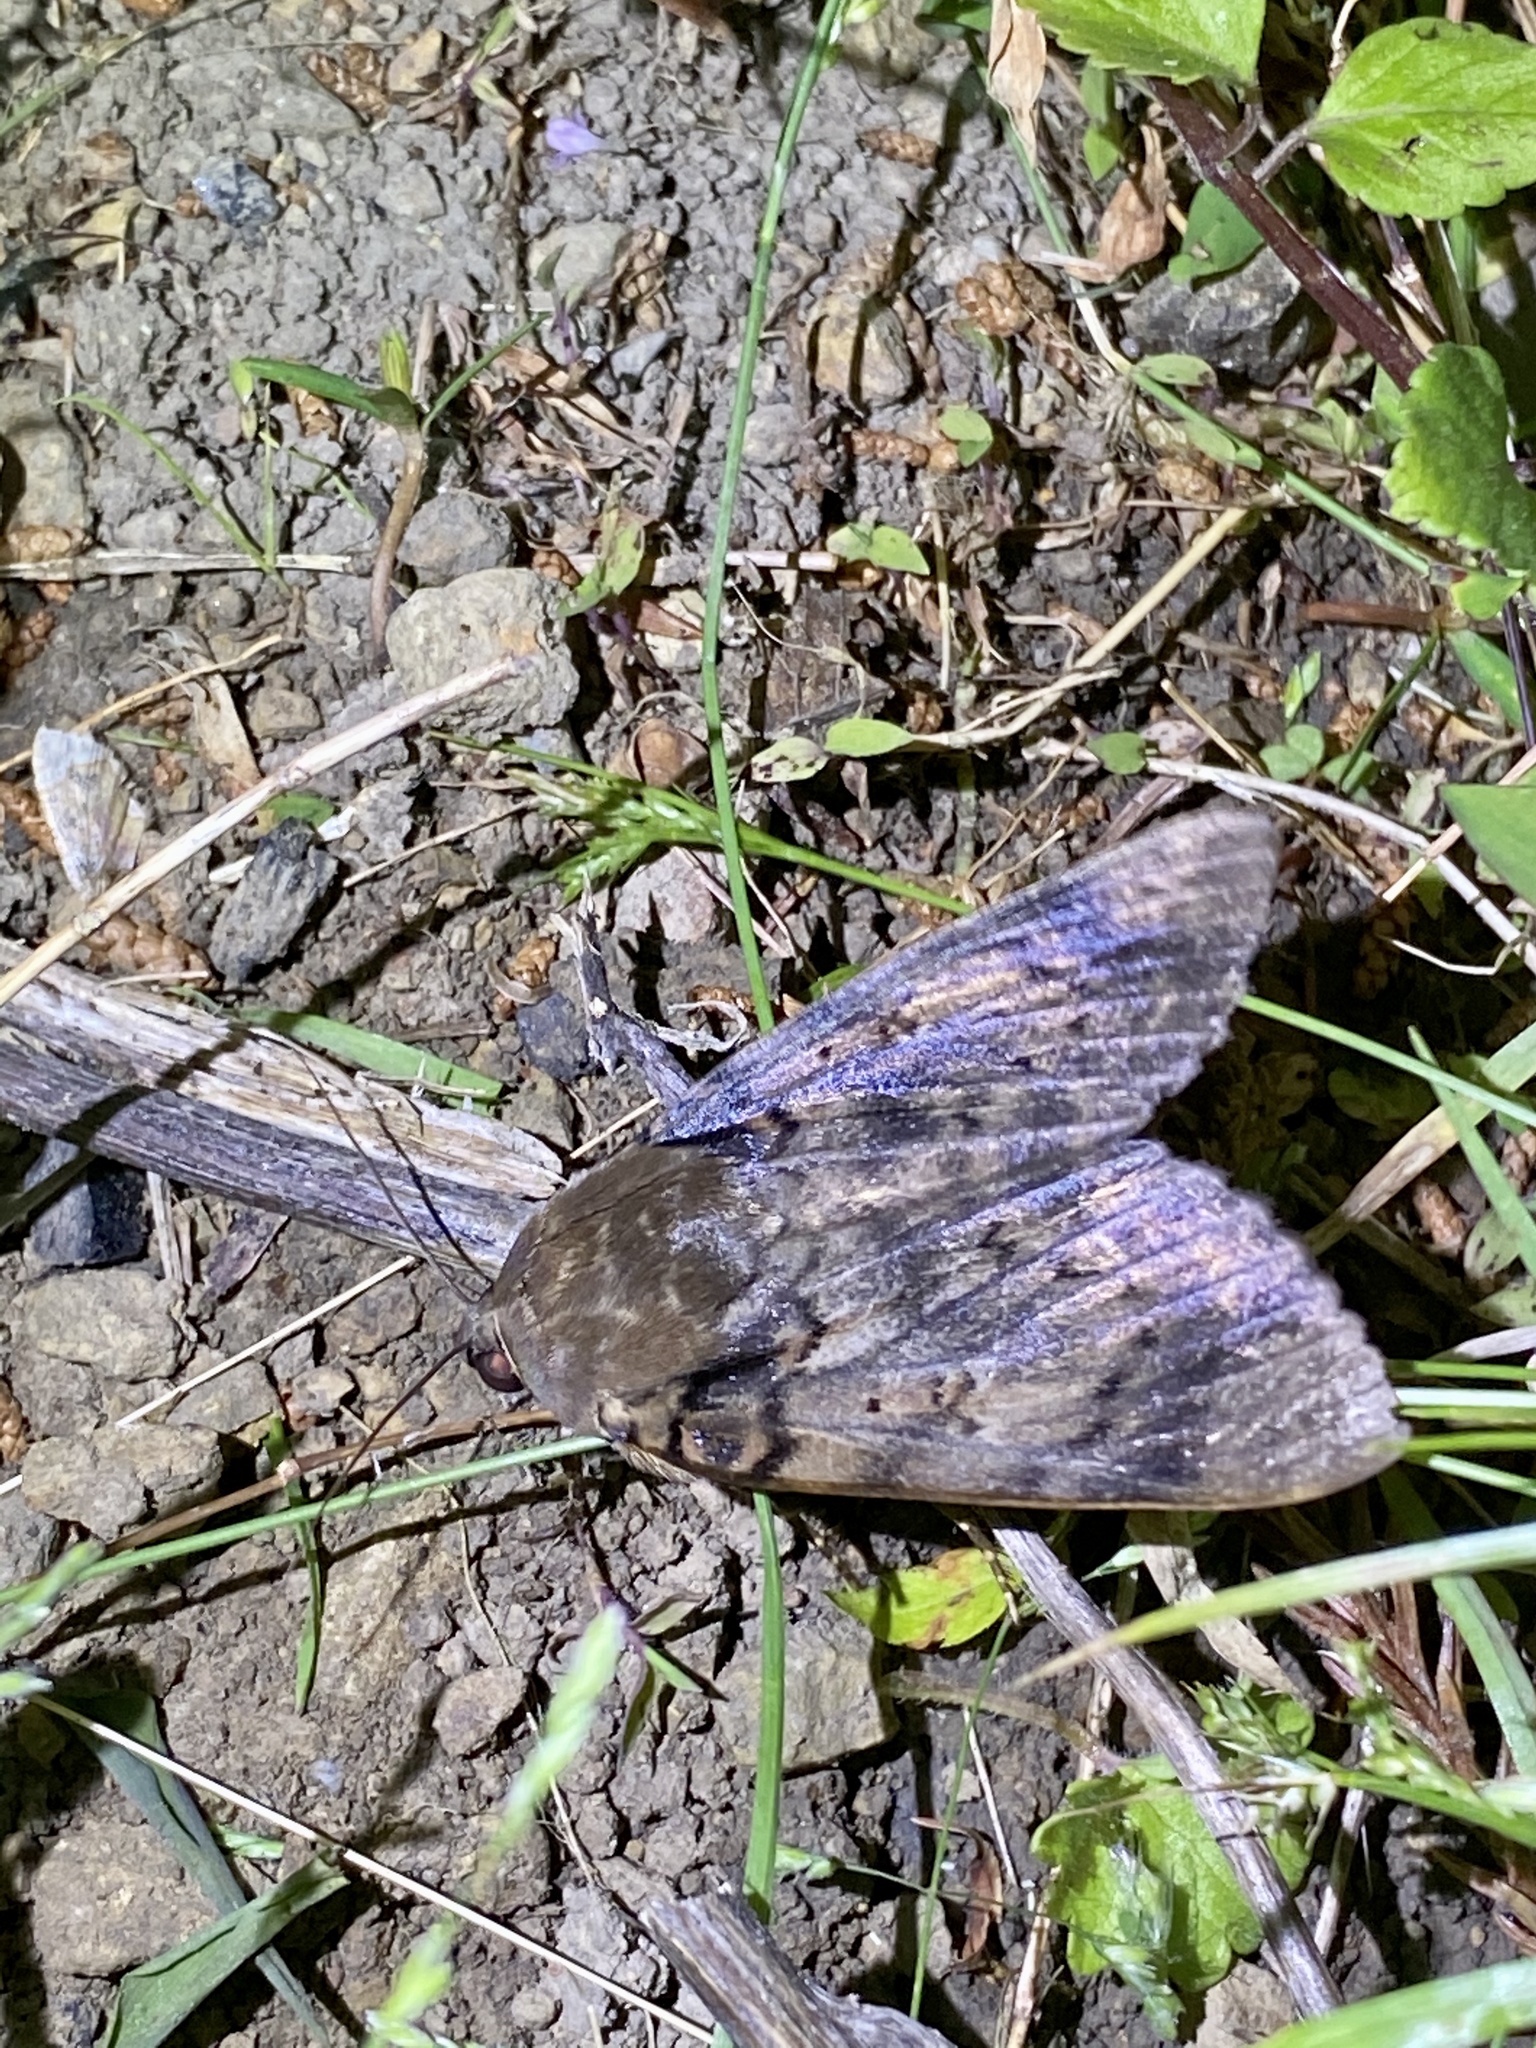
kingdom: Animalia
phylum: Arthropoda
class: Insecta
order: Lepidoptera
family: Erebidae
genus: Arcte
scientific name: Arcte coerula
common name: Ramie moth
